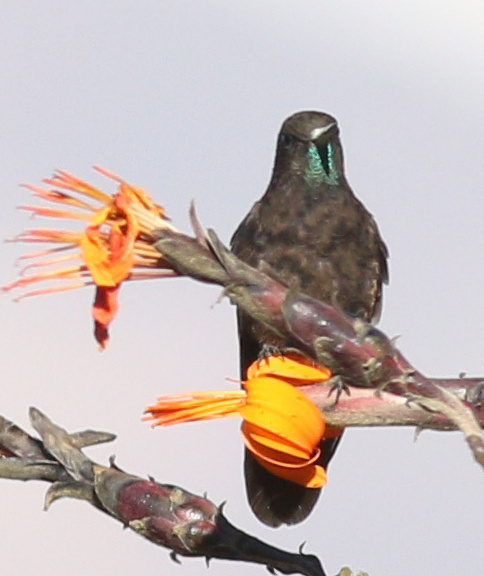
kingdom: Animalia
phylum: Chordata
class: Aves
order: Apodiformes
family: Trochilidae
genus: Metallura
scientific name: Metallura phoebe
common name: Black metaltail
